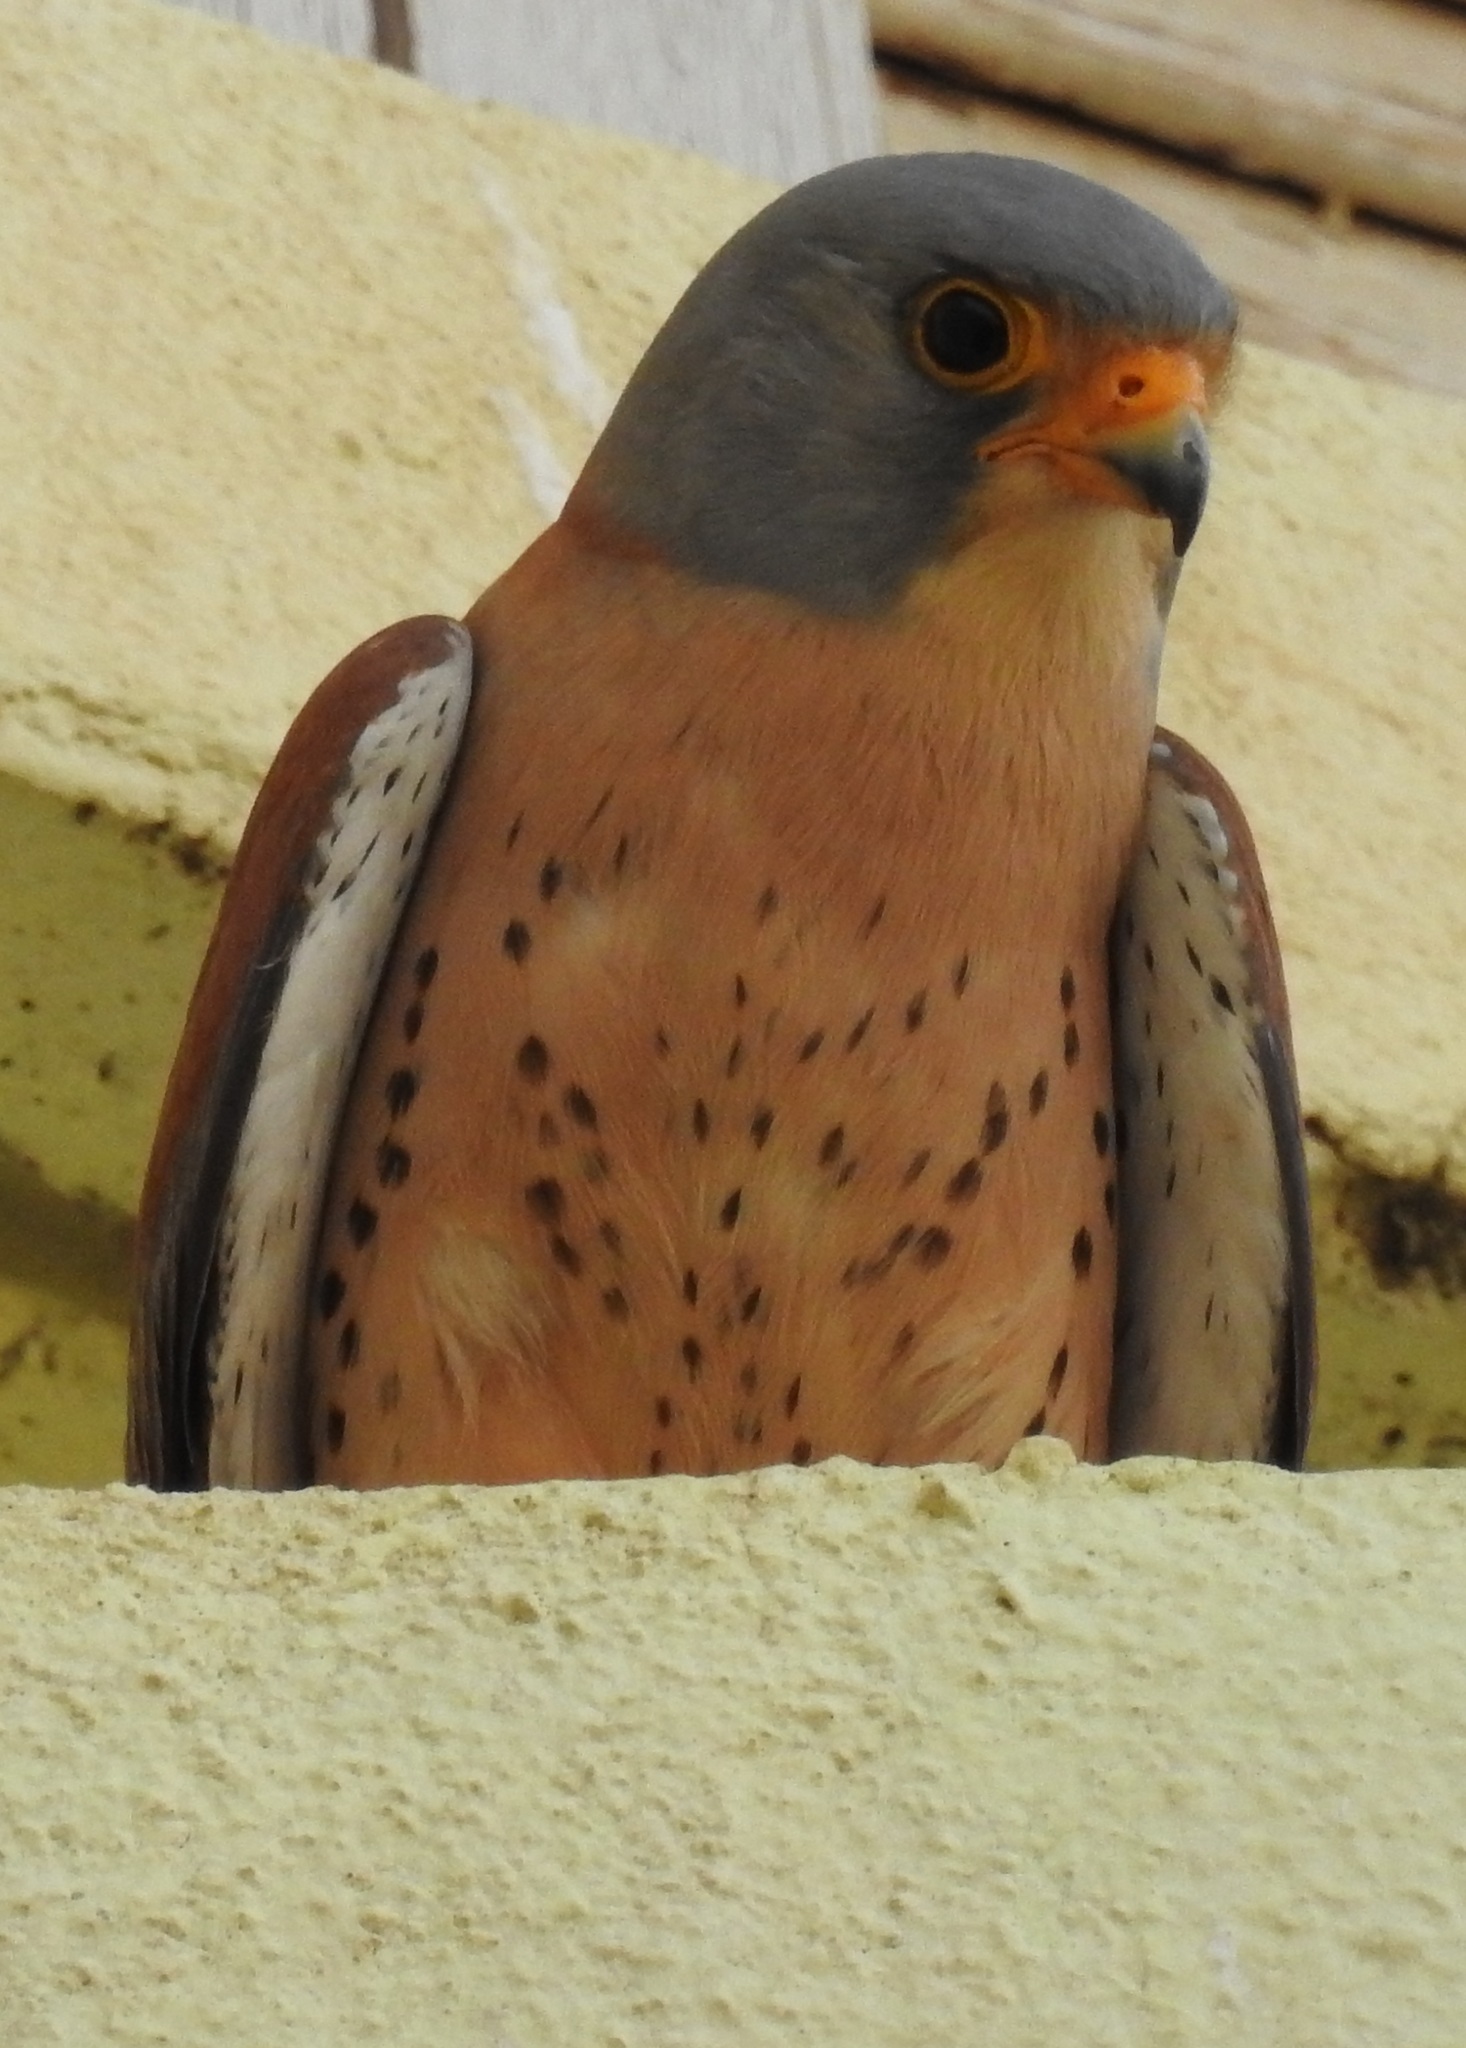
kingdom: Animalia
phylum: Chordata
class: Aves
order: Falconiformes
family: Falconidae
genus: Falco
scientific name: Falco naumanni
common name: Lesser kestrel
